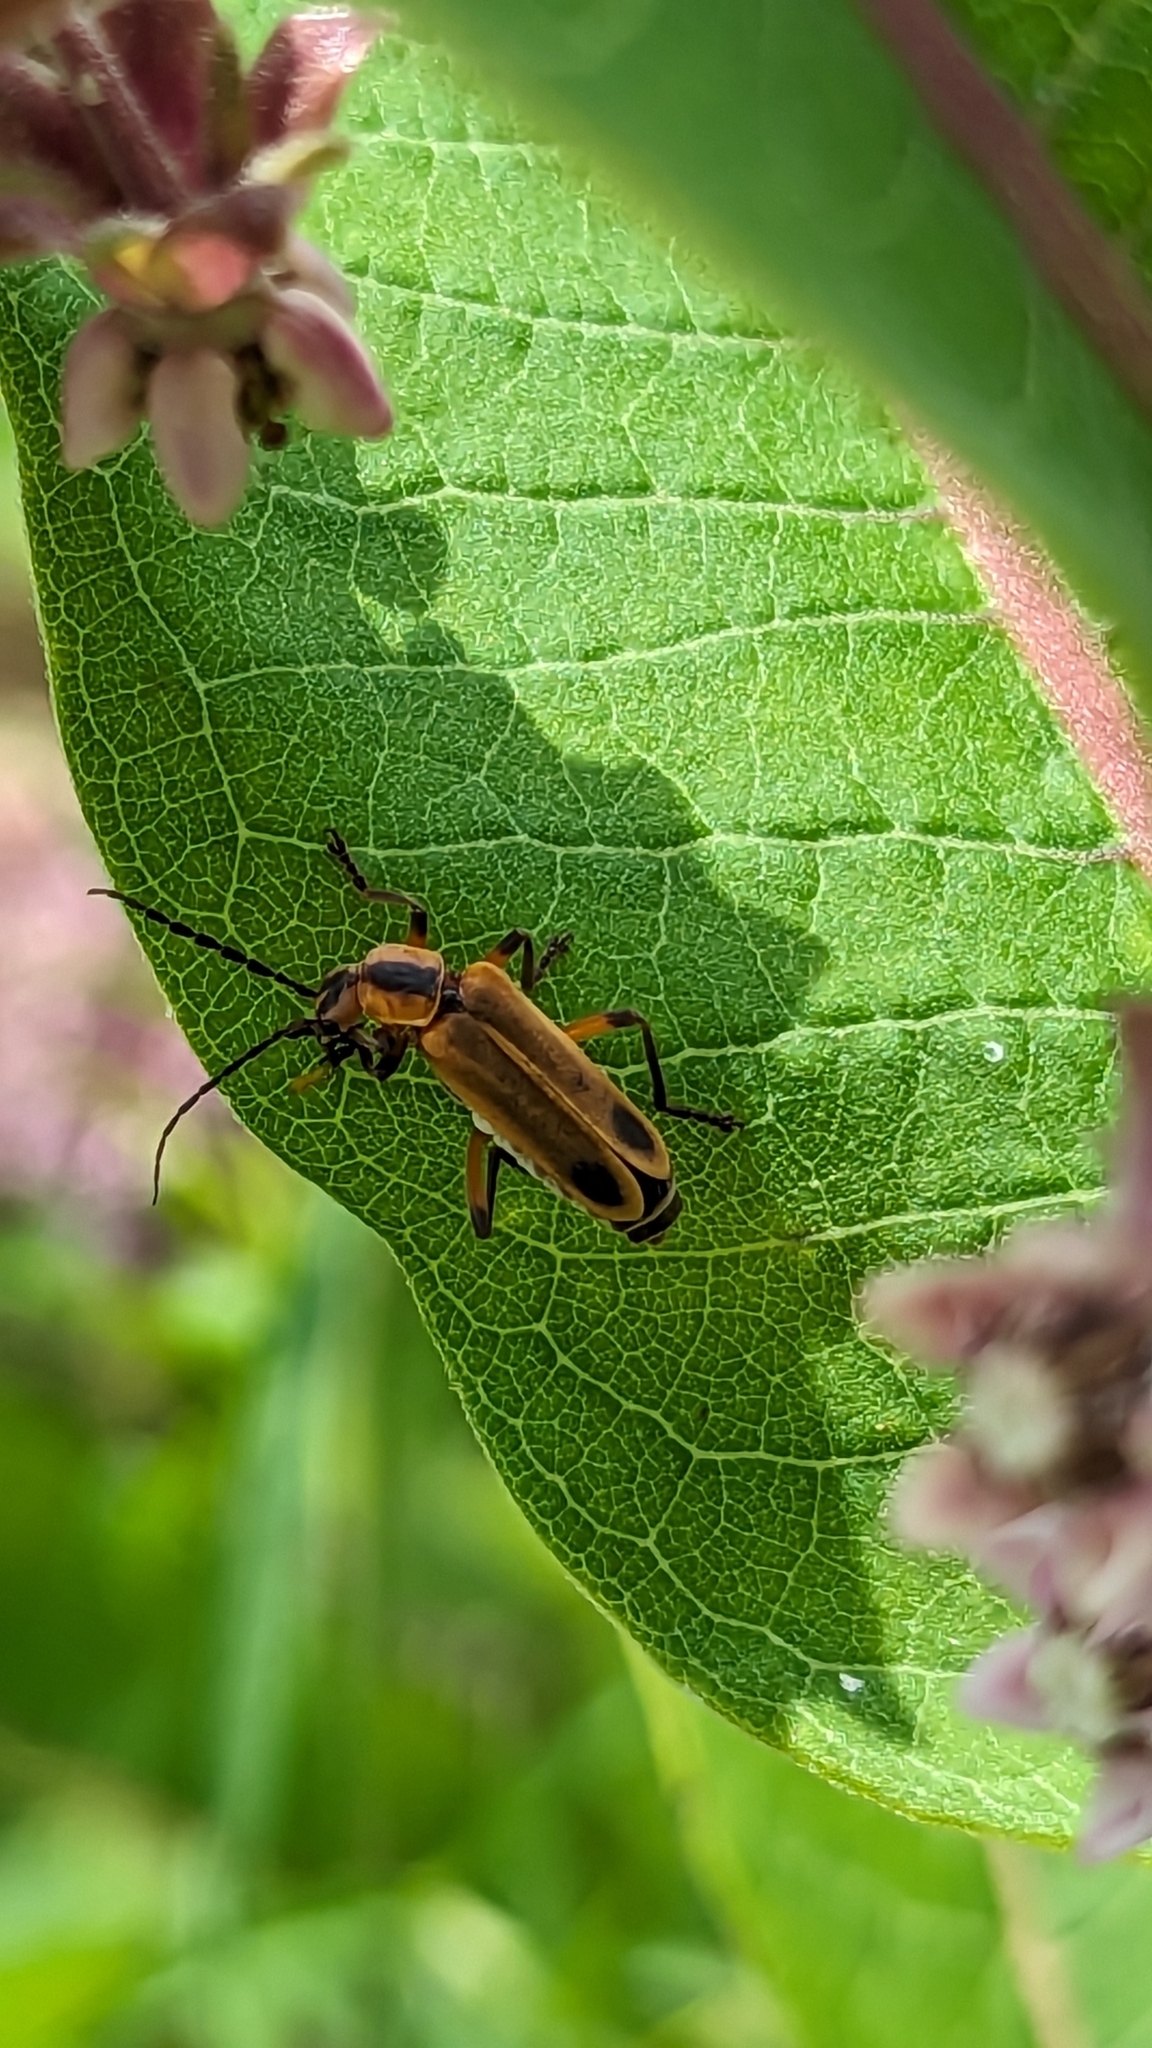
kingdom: Animalia
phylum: Arthropoda
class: Insecta
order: Coleoptera
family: Cantharidae
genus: Chauliognathus
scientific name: Chauliognathus marginatus
